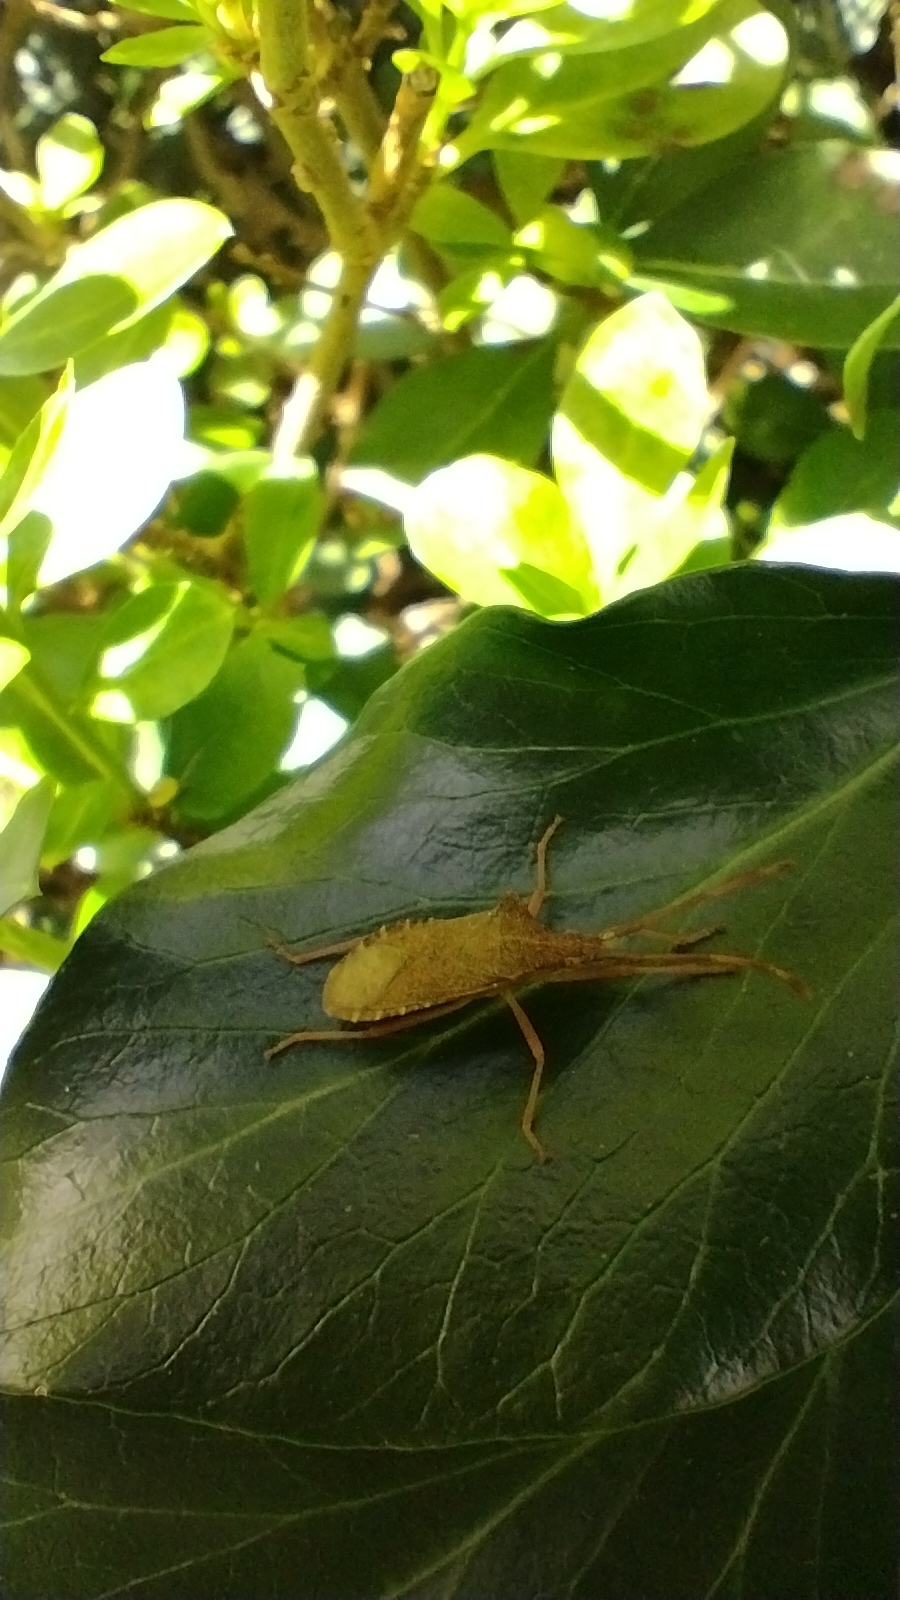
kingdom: Animalia
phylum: Arthropoda
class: Insecta
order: Hemiptera
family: Coreidae
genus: Gonocerus
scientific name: Gonocerus acuteangulatus
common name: Box bug
